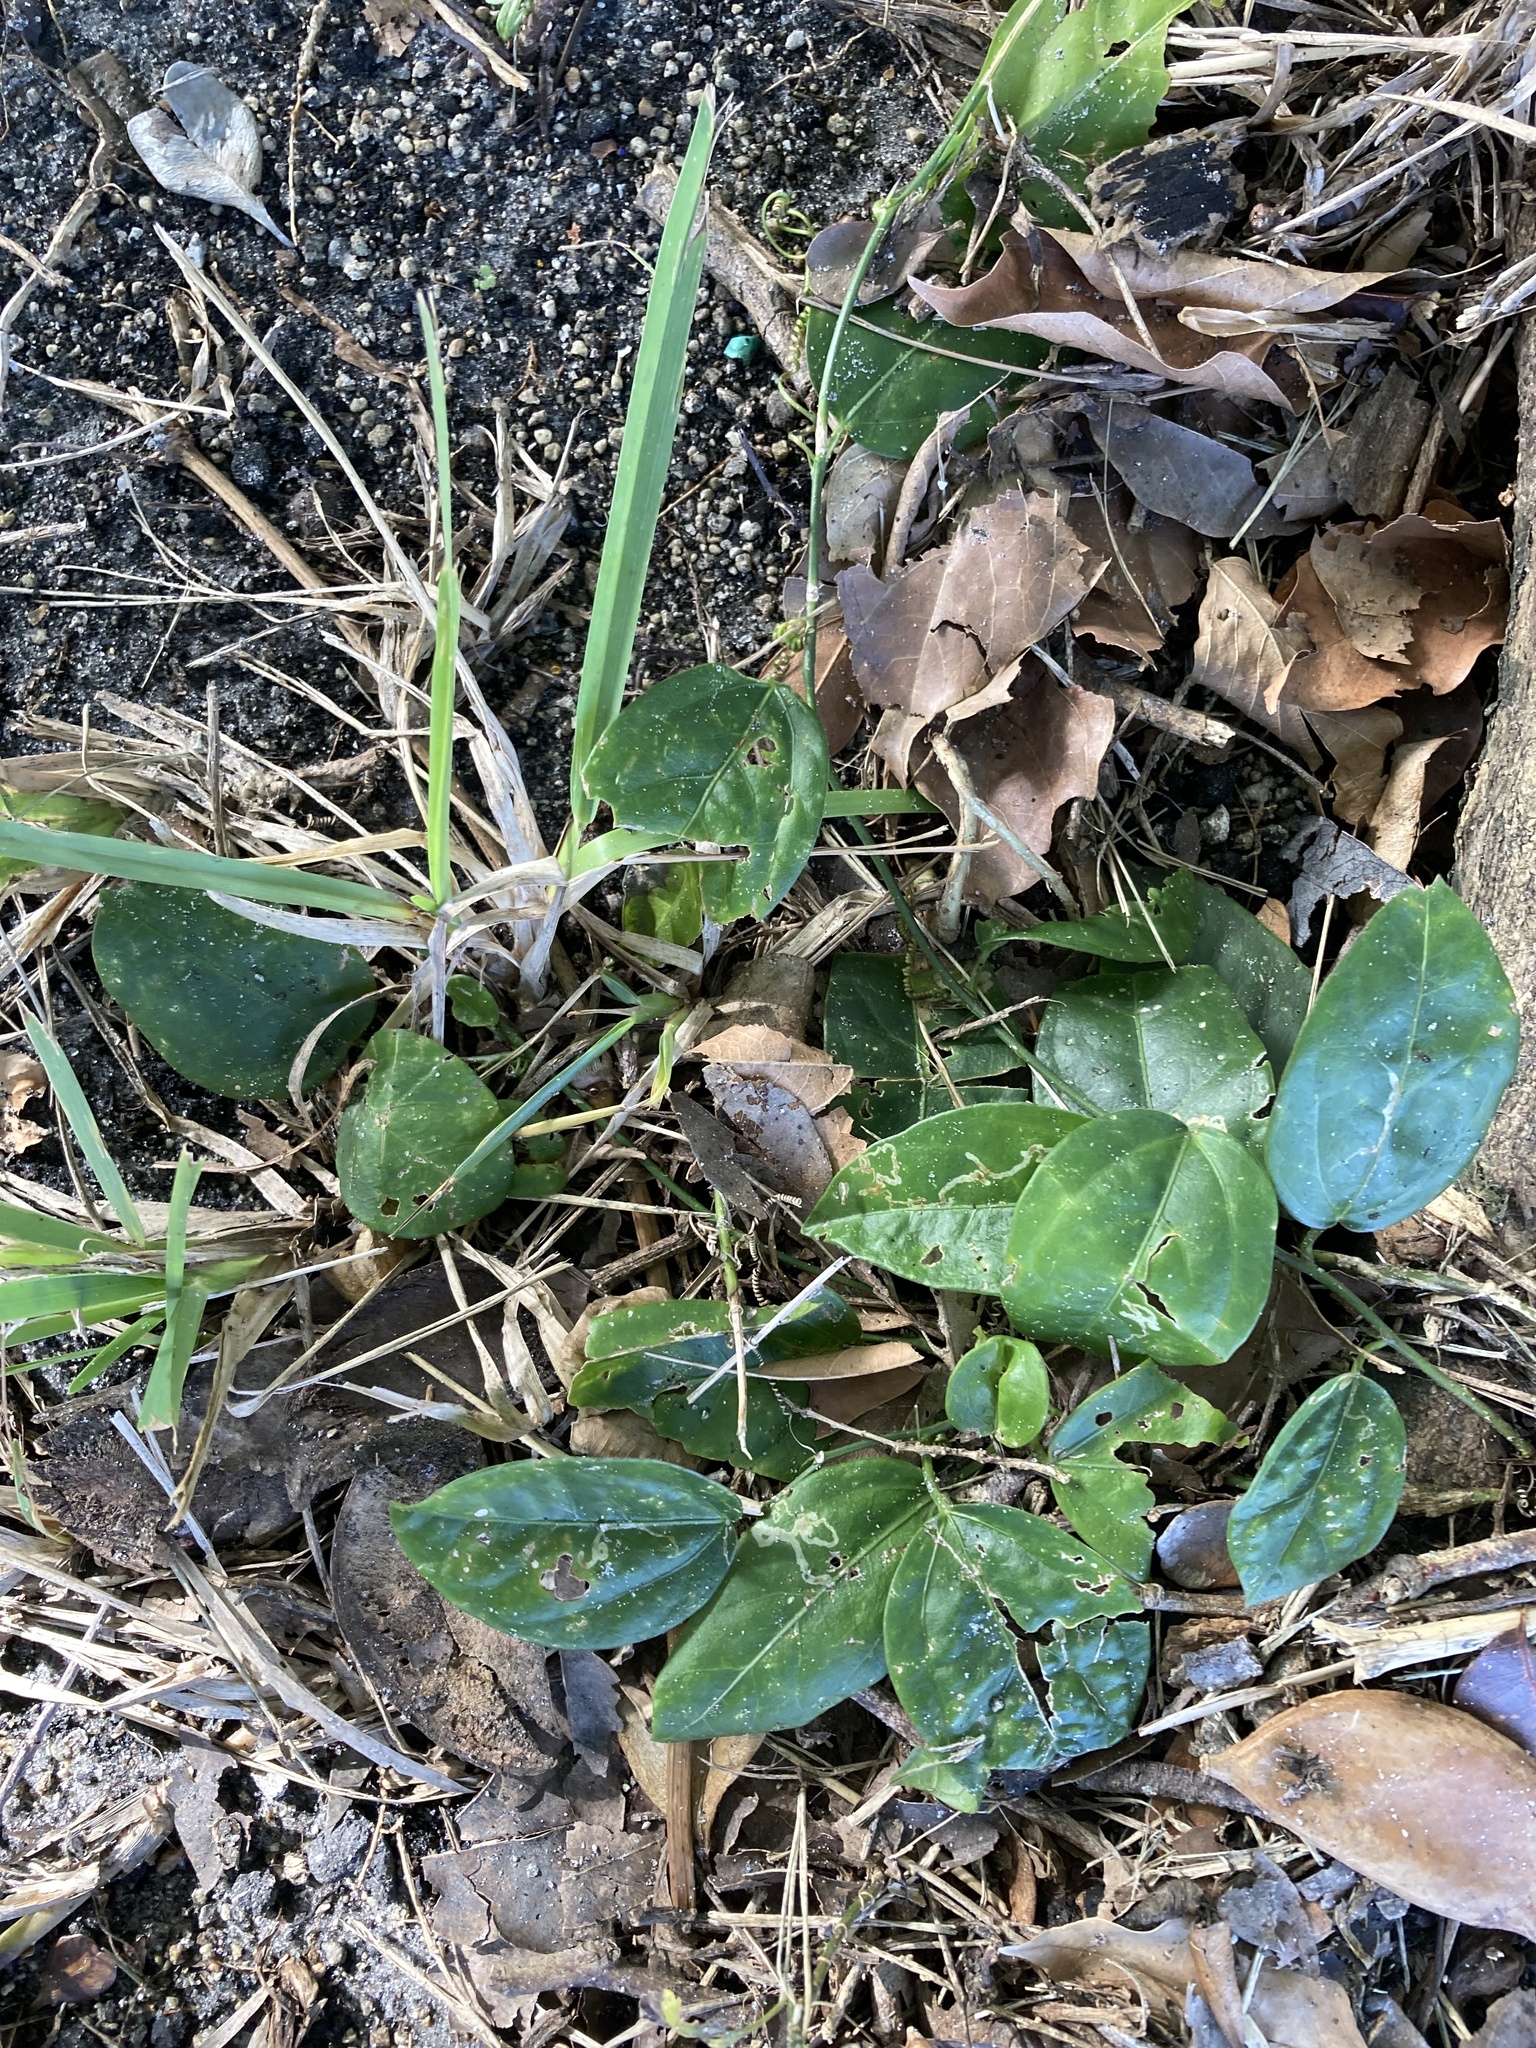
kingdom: Plantae
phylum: Tracheophyta
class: Magnoliopsida
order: Malpighiales
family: Passifloraceae
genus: Passiflora
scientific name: Passiflora pallida
